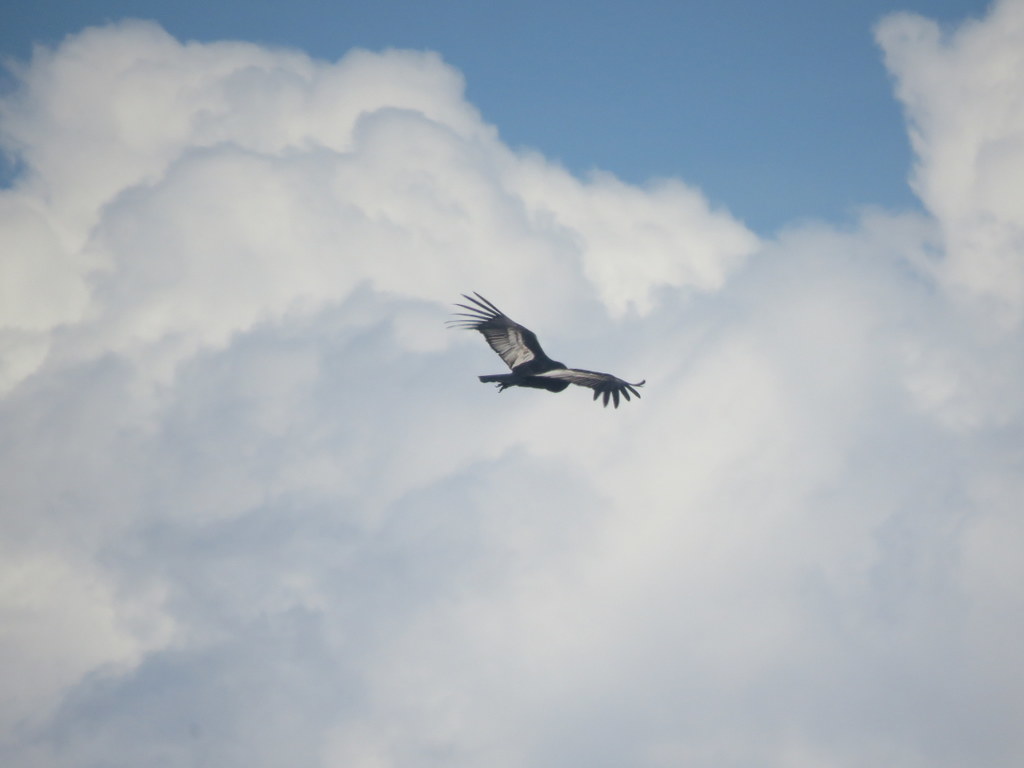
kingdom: Animalia
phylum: Chordata
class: Aves
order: Accipitriformes
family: Cathartidae
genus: Vultur
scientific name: Vultur gryphus
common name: Andean condor
